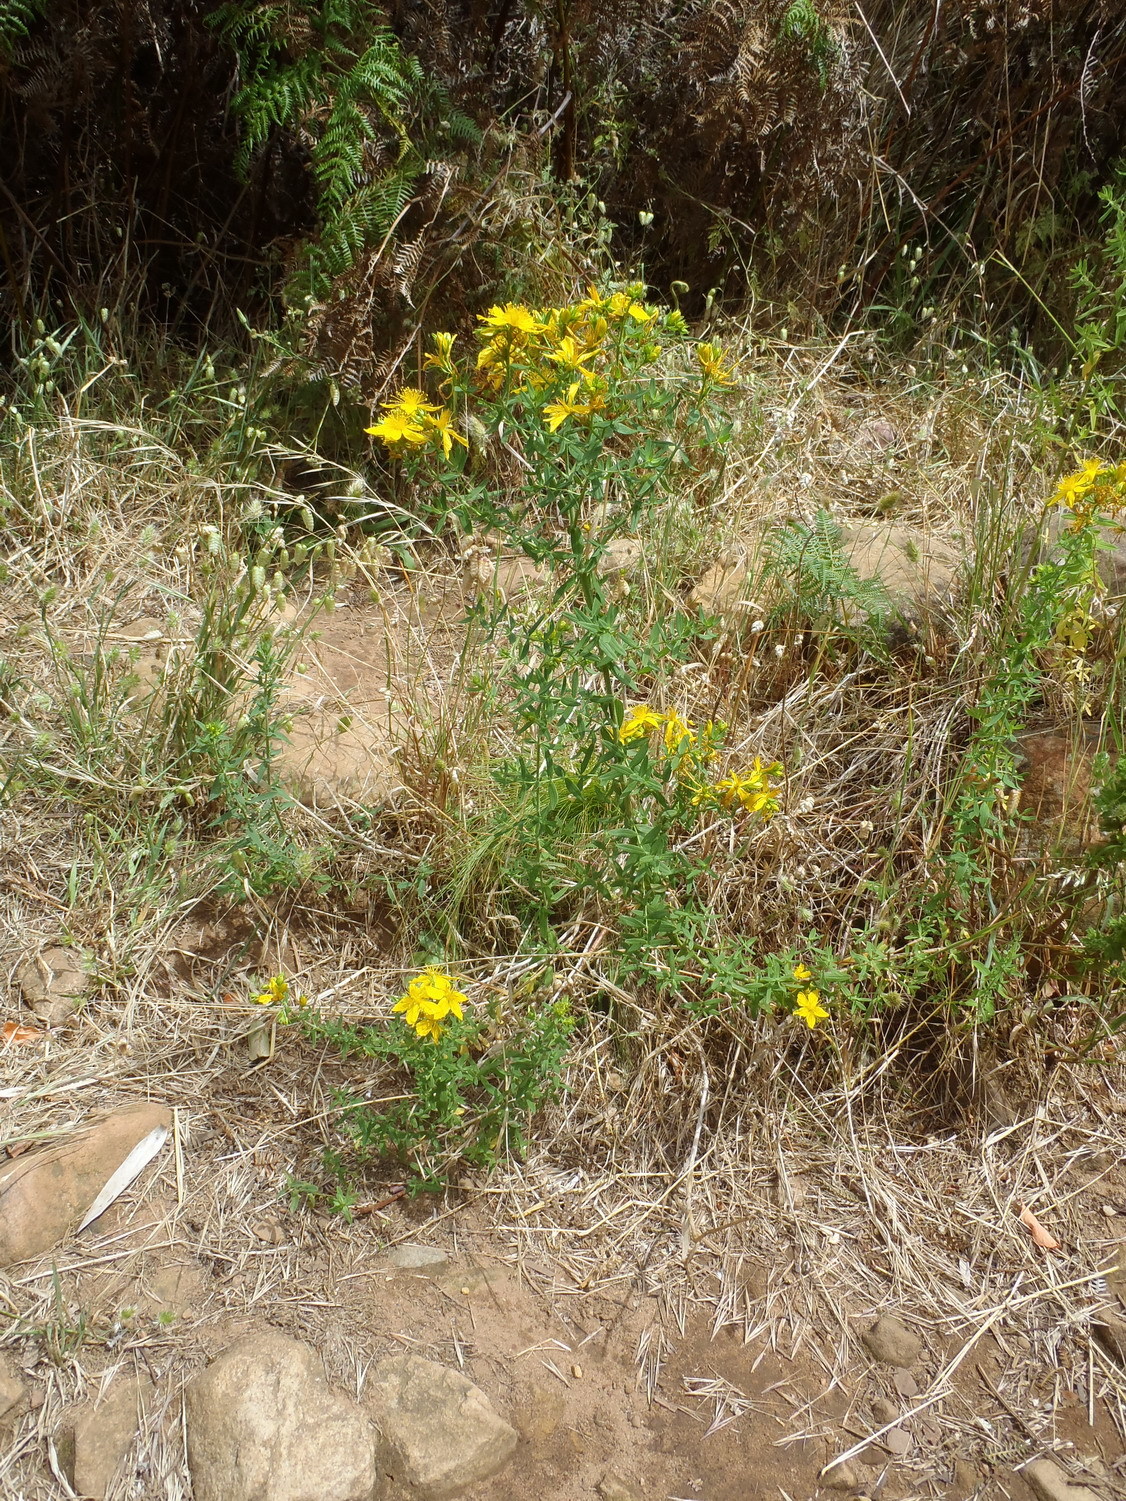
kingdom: Plantae
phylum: Tracheophyta
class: Magnoliopsida
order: Malpighiales
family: Hypericaceae
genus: Hypericum
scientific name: Hypericum perforatum
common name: Common st. johnswort
